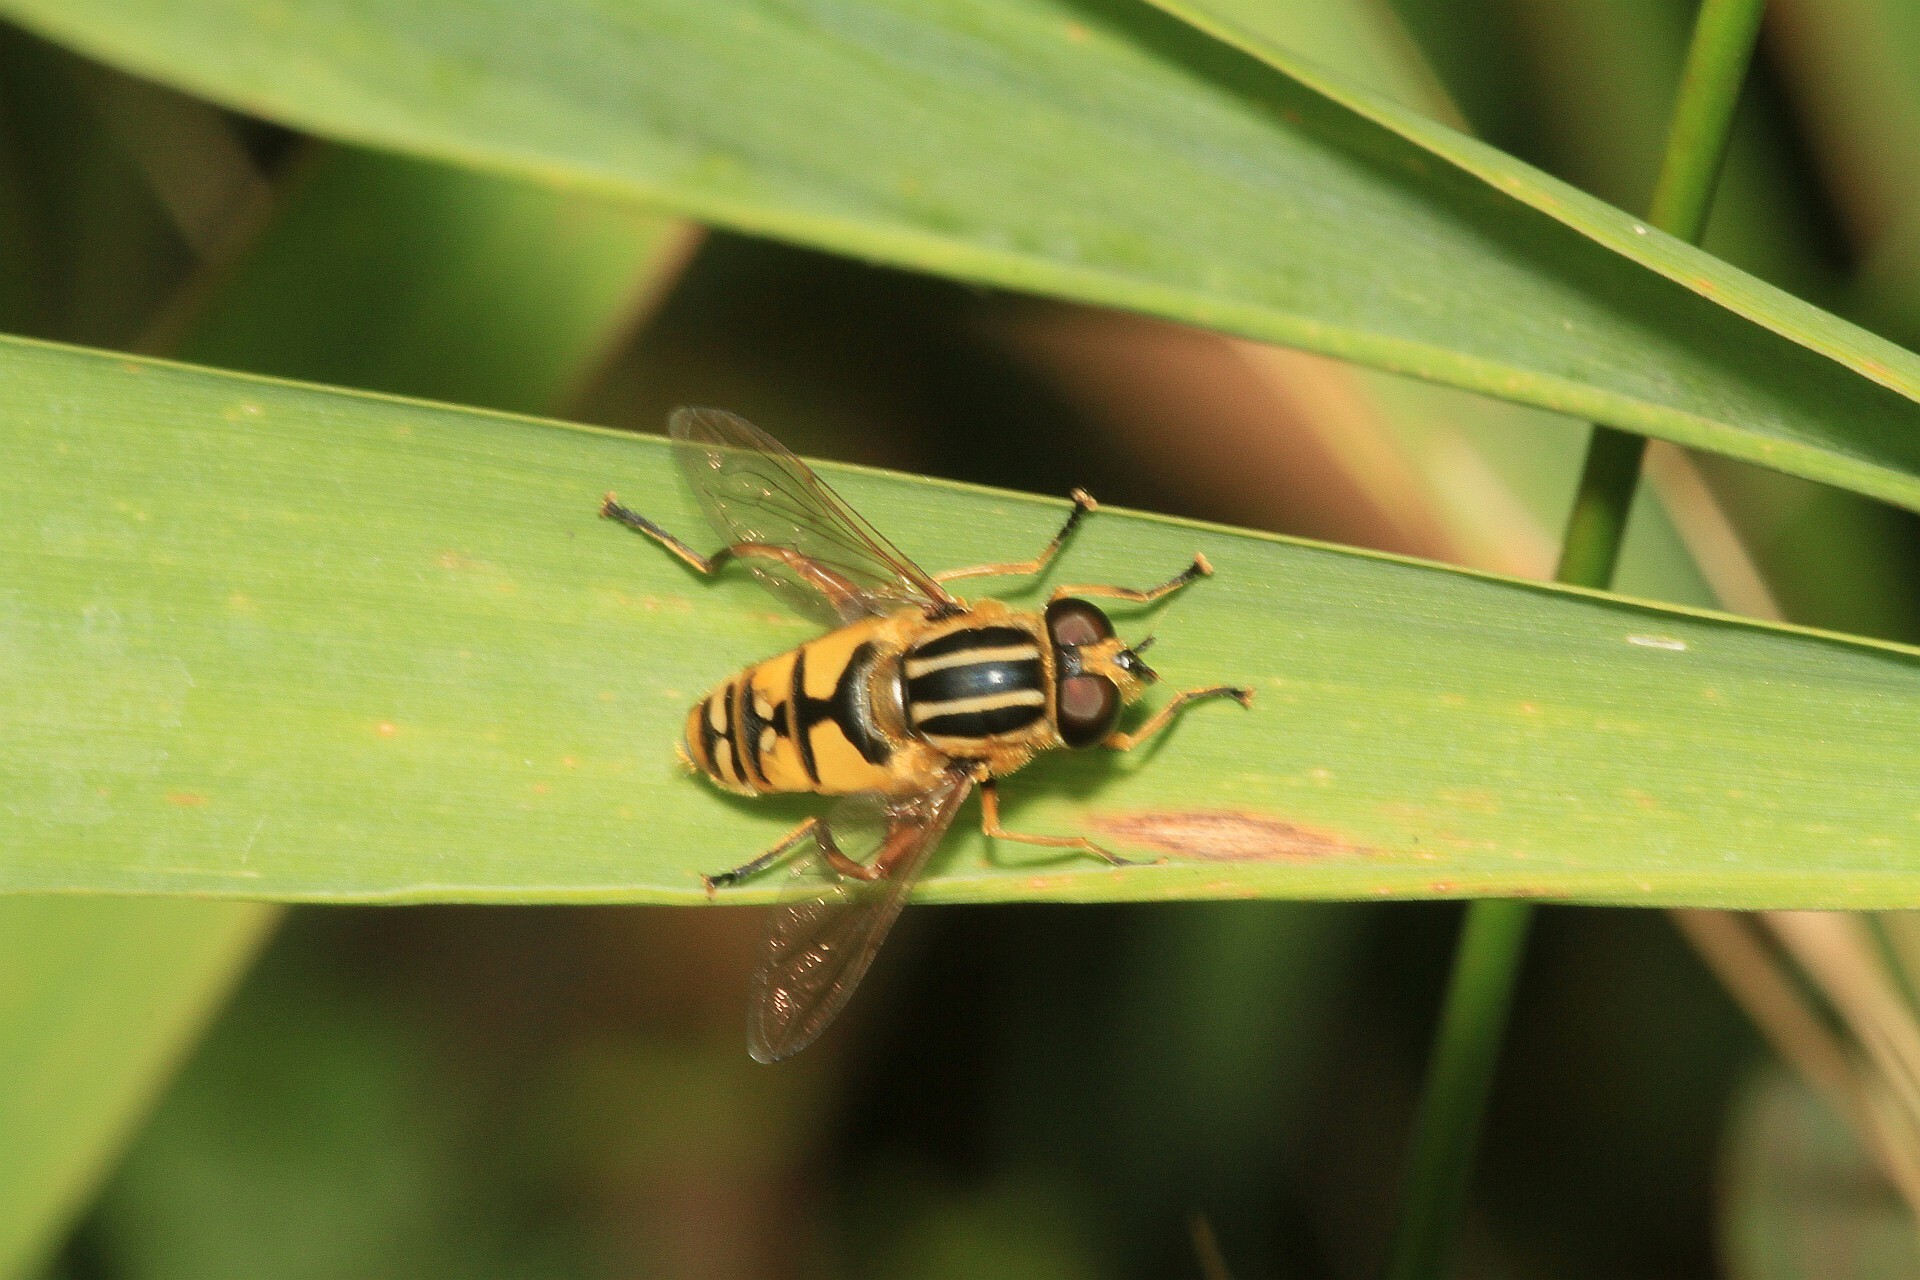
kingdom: Animalia
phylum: Arthropoda
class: Insecta
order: Diptera
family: Syrphidae
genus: Helophilus
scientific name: Helophilus pendulus
